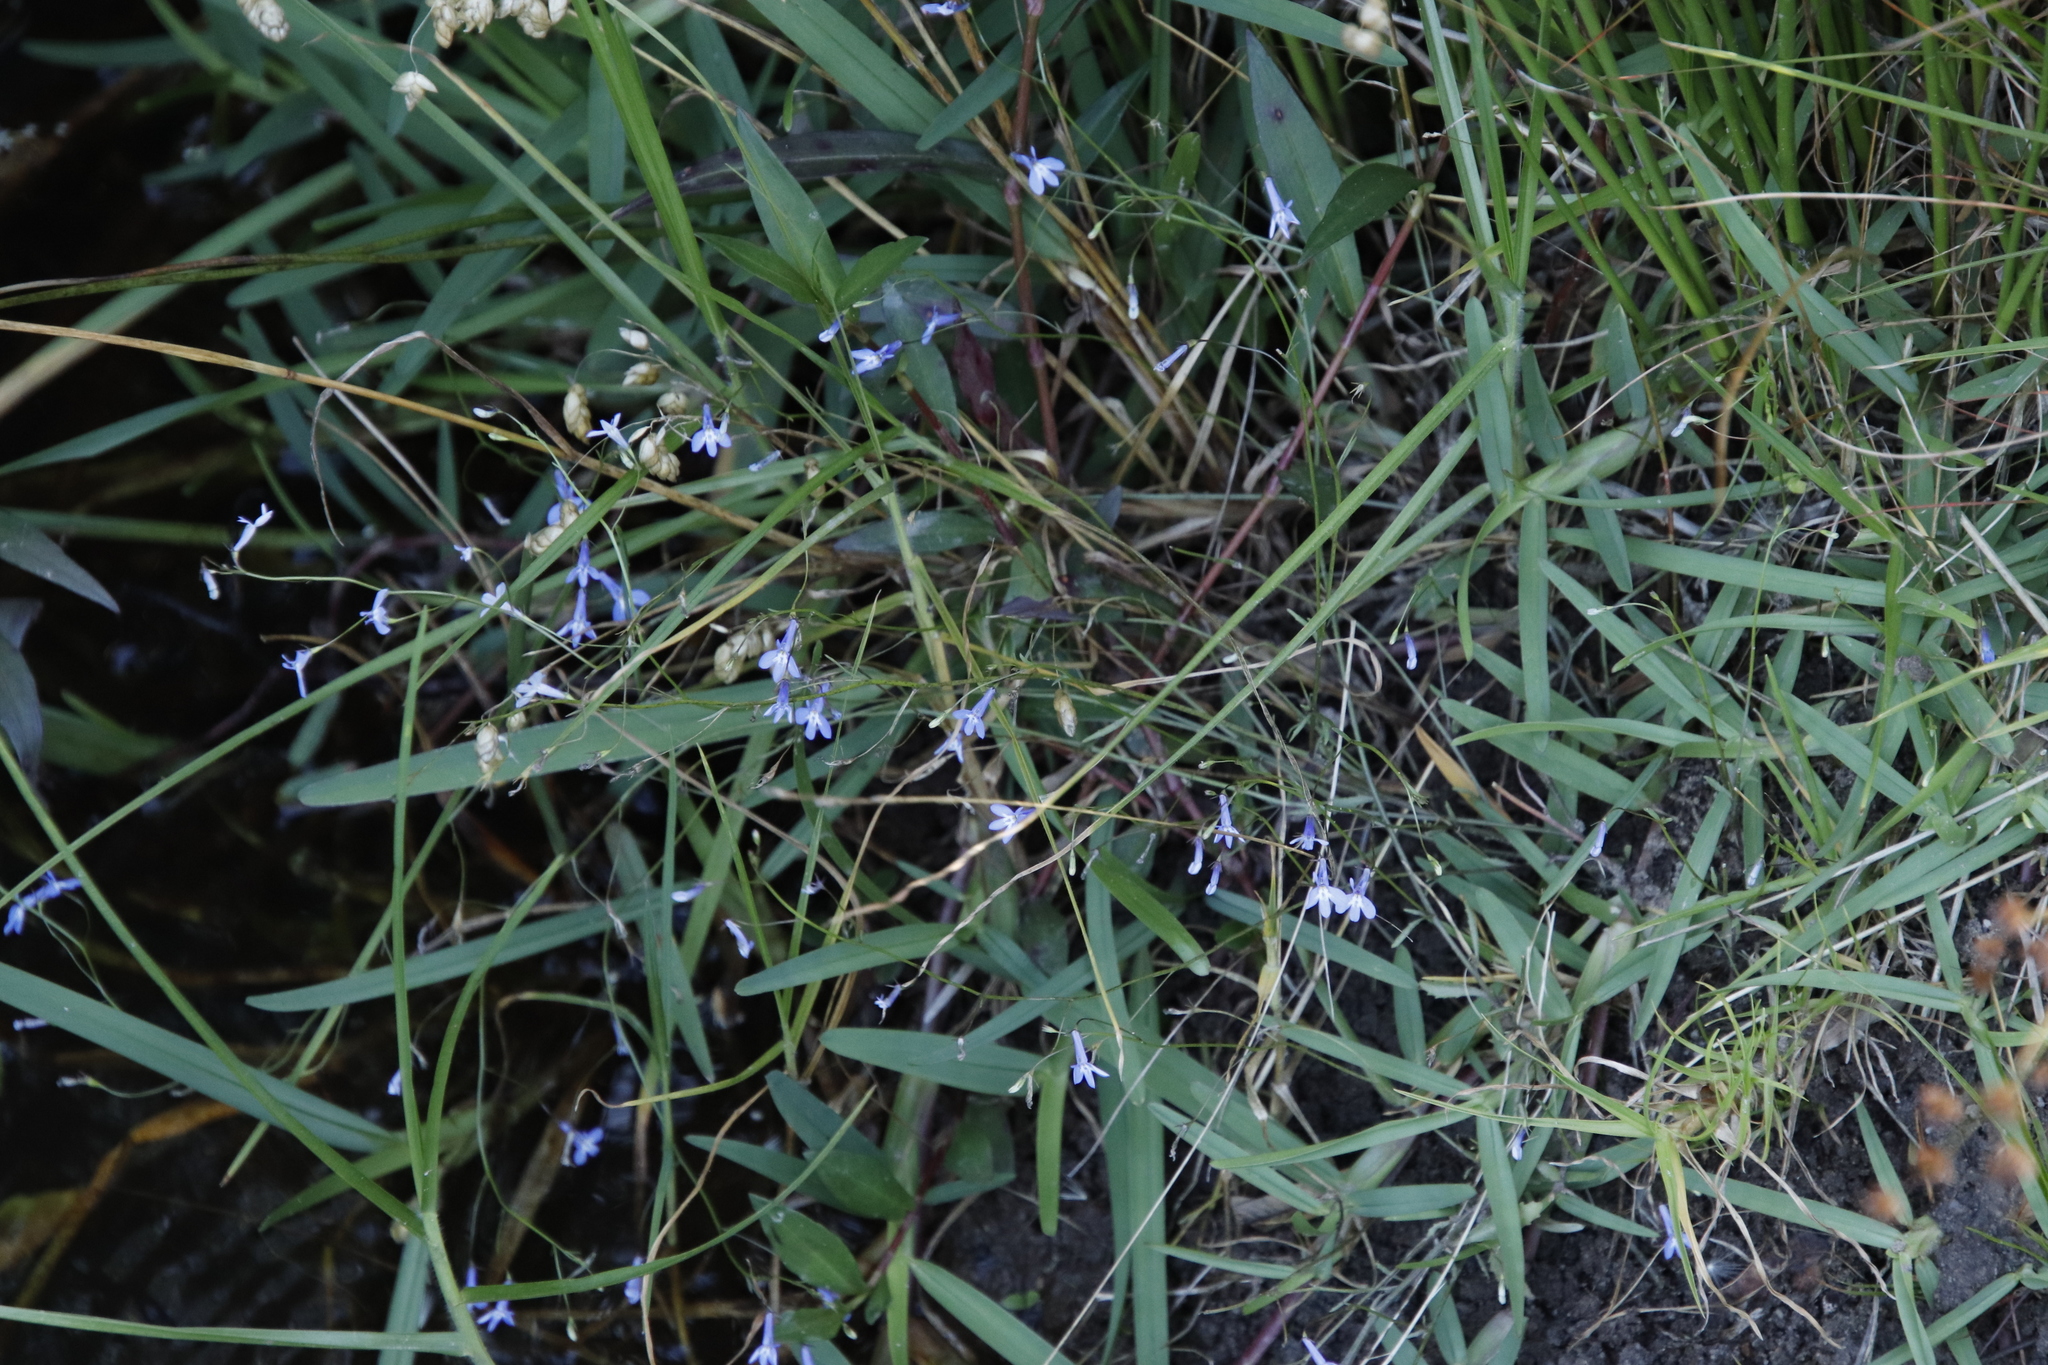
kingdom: Plantae
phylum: Tracheophyta
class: Magnoliopsida
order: Asterales
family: Campanulaceae
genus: Lobelia
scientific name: Lobelia erinus
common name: Edging lobelia
